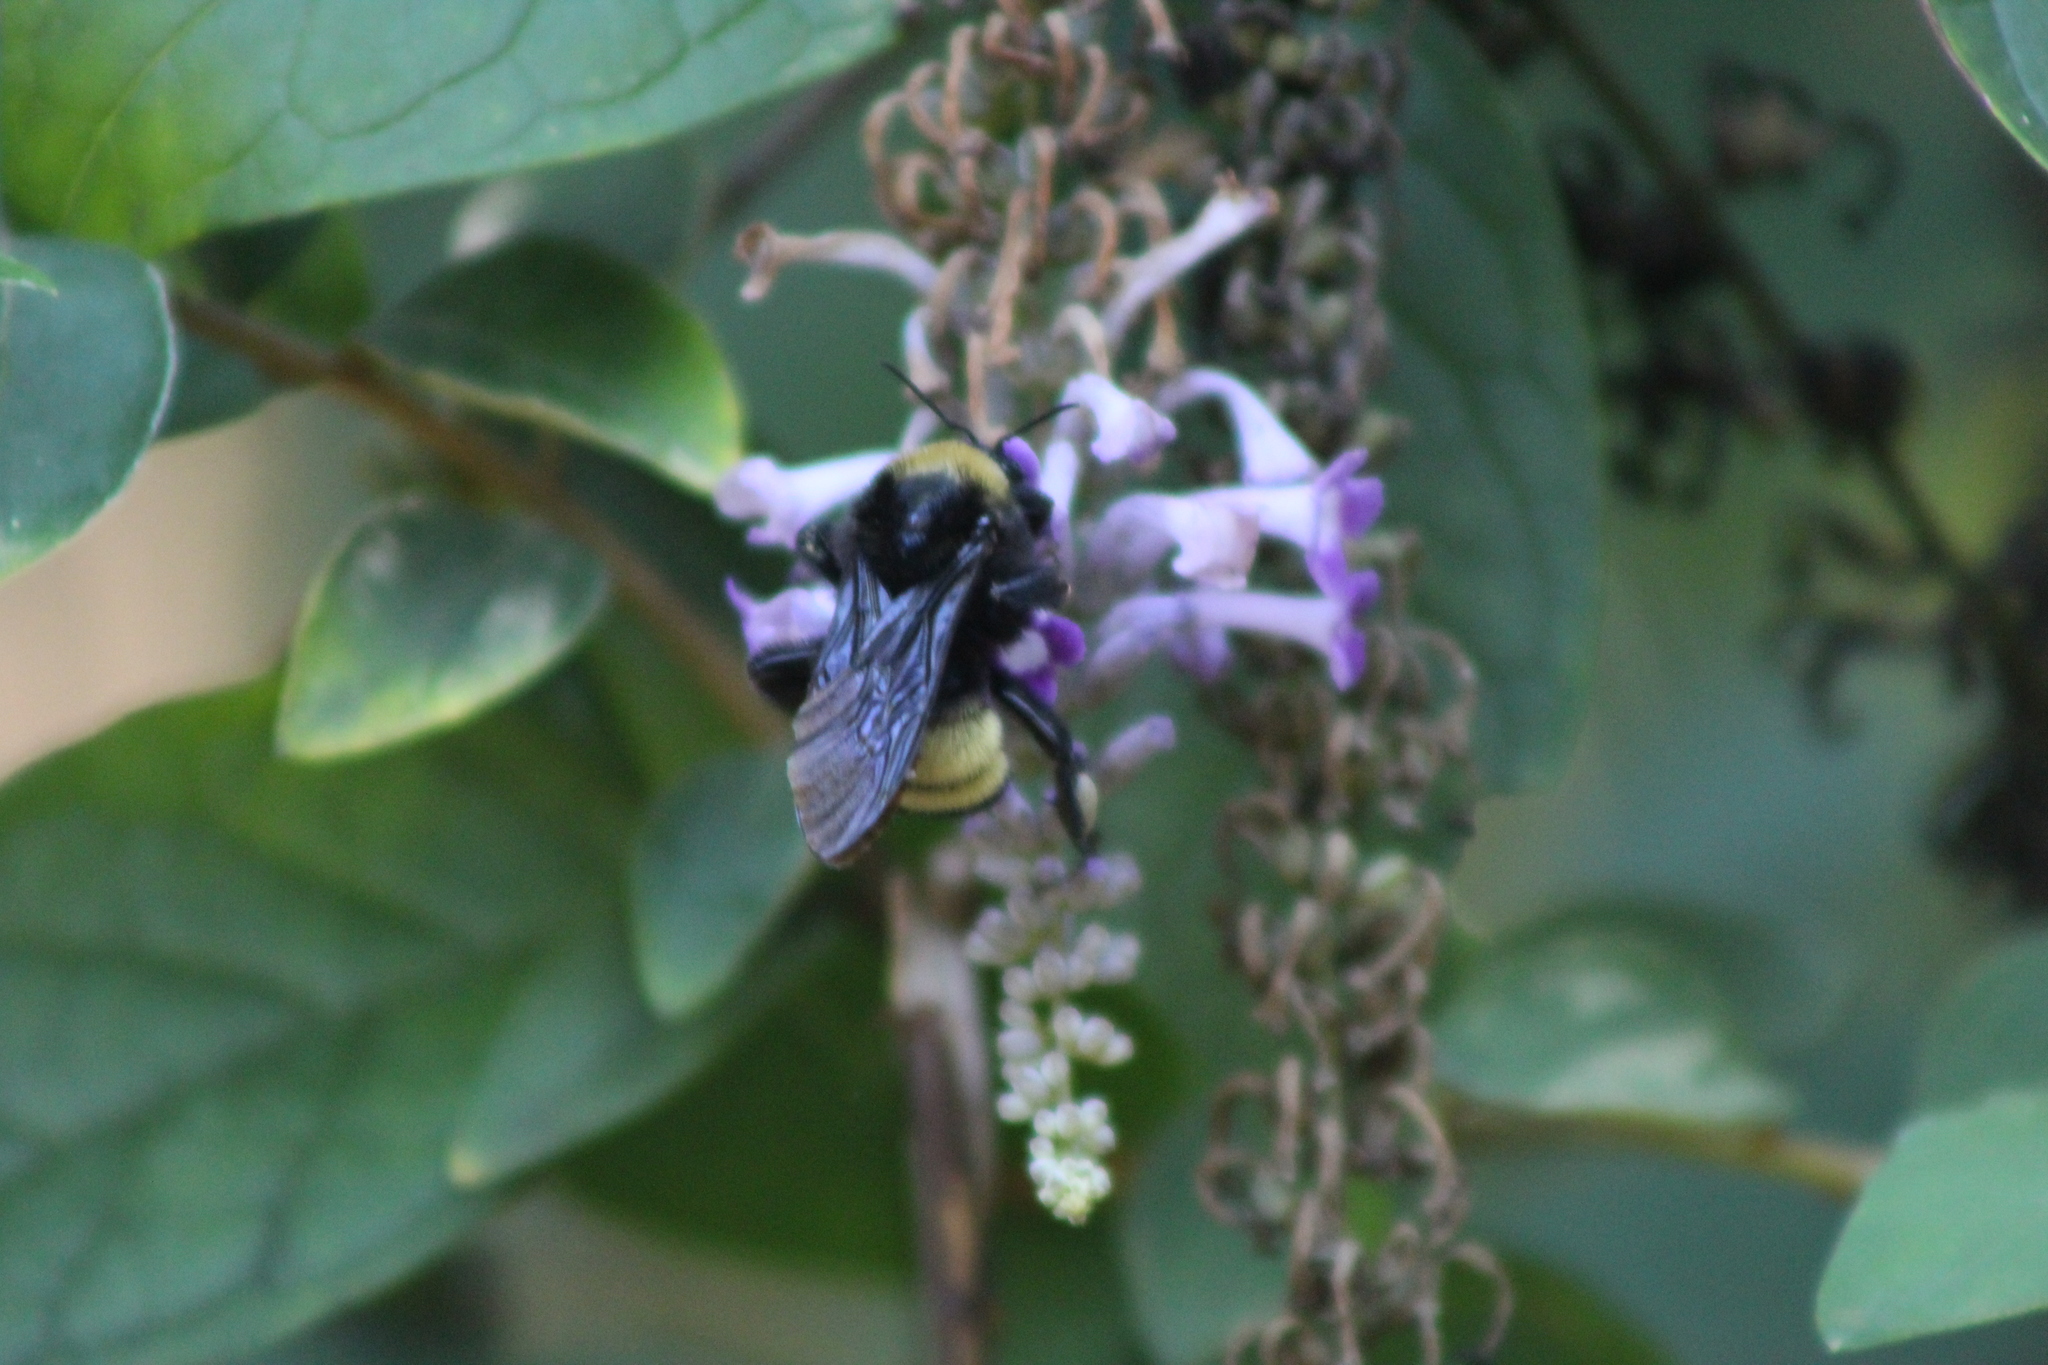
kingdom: Animalia
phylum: Arthropoda
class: Insecta
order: Hymenoptera
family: Apidae
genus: Bombus
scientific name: Bombus pensylvanicus
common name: Bumble bee
